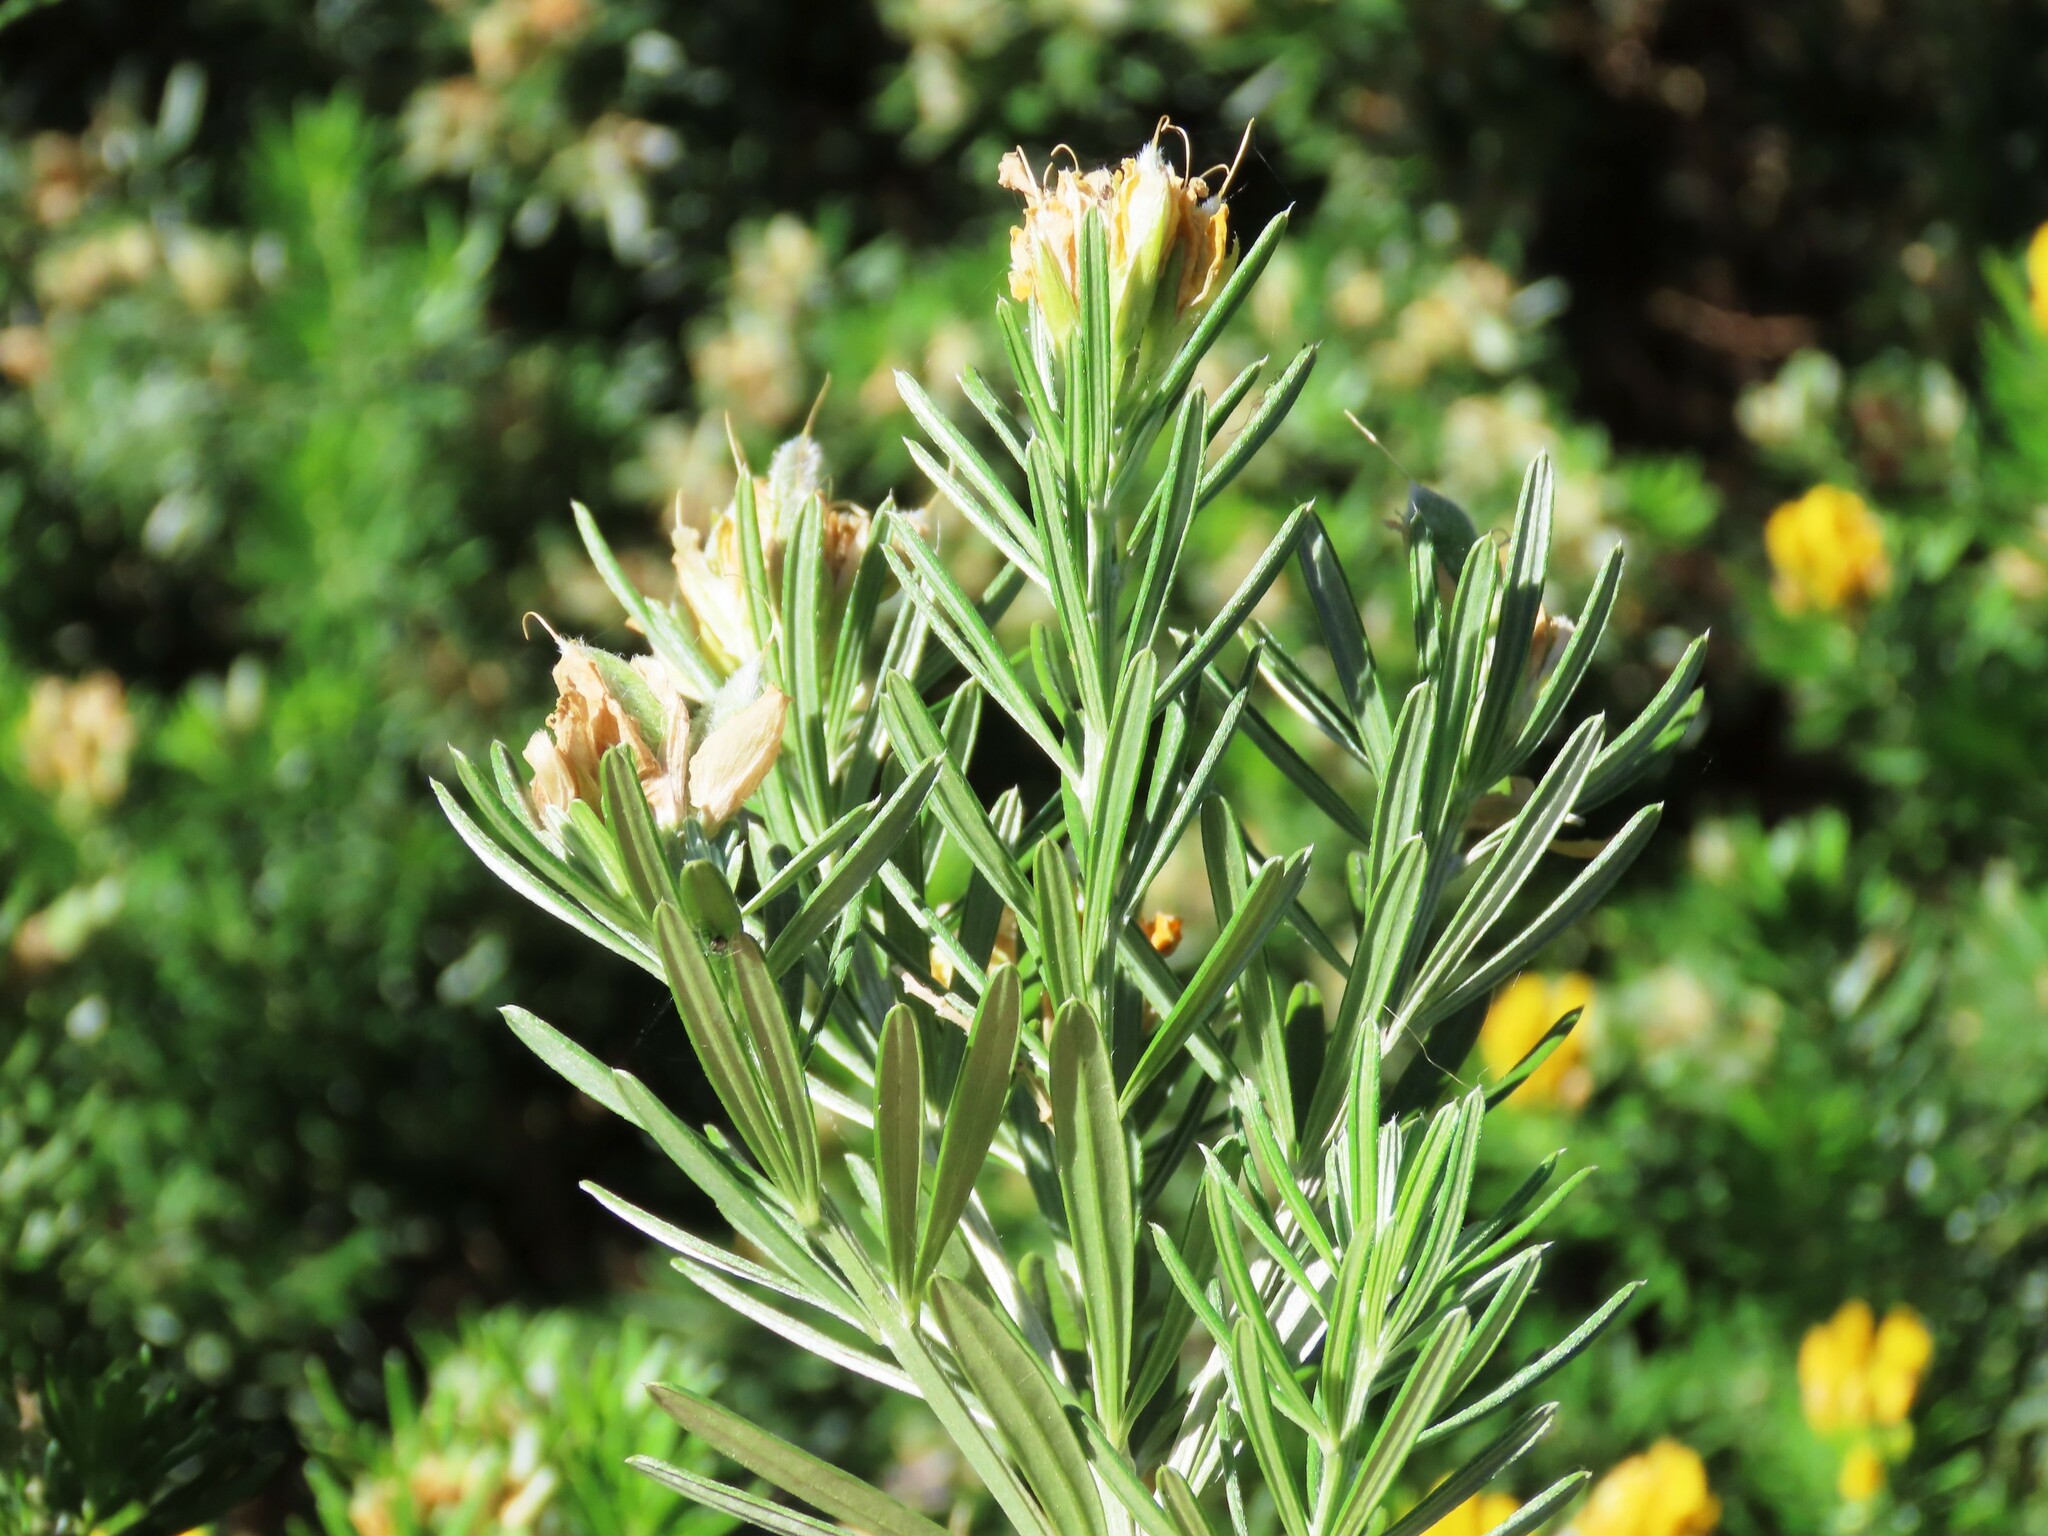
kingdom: Plantae
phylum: Tracheophyta
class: Magnoliopsida
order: Fabales
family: Fabaceae
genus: Genista
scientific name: Genista linifolia
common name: Mediterranean broom
